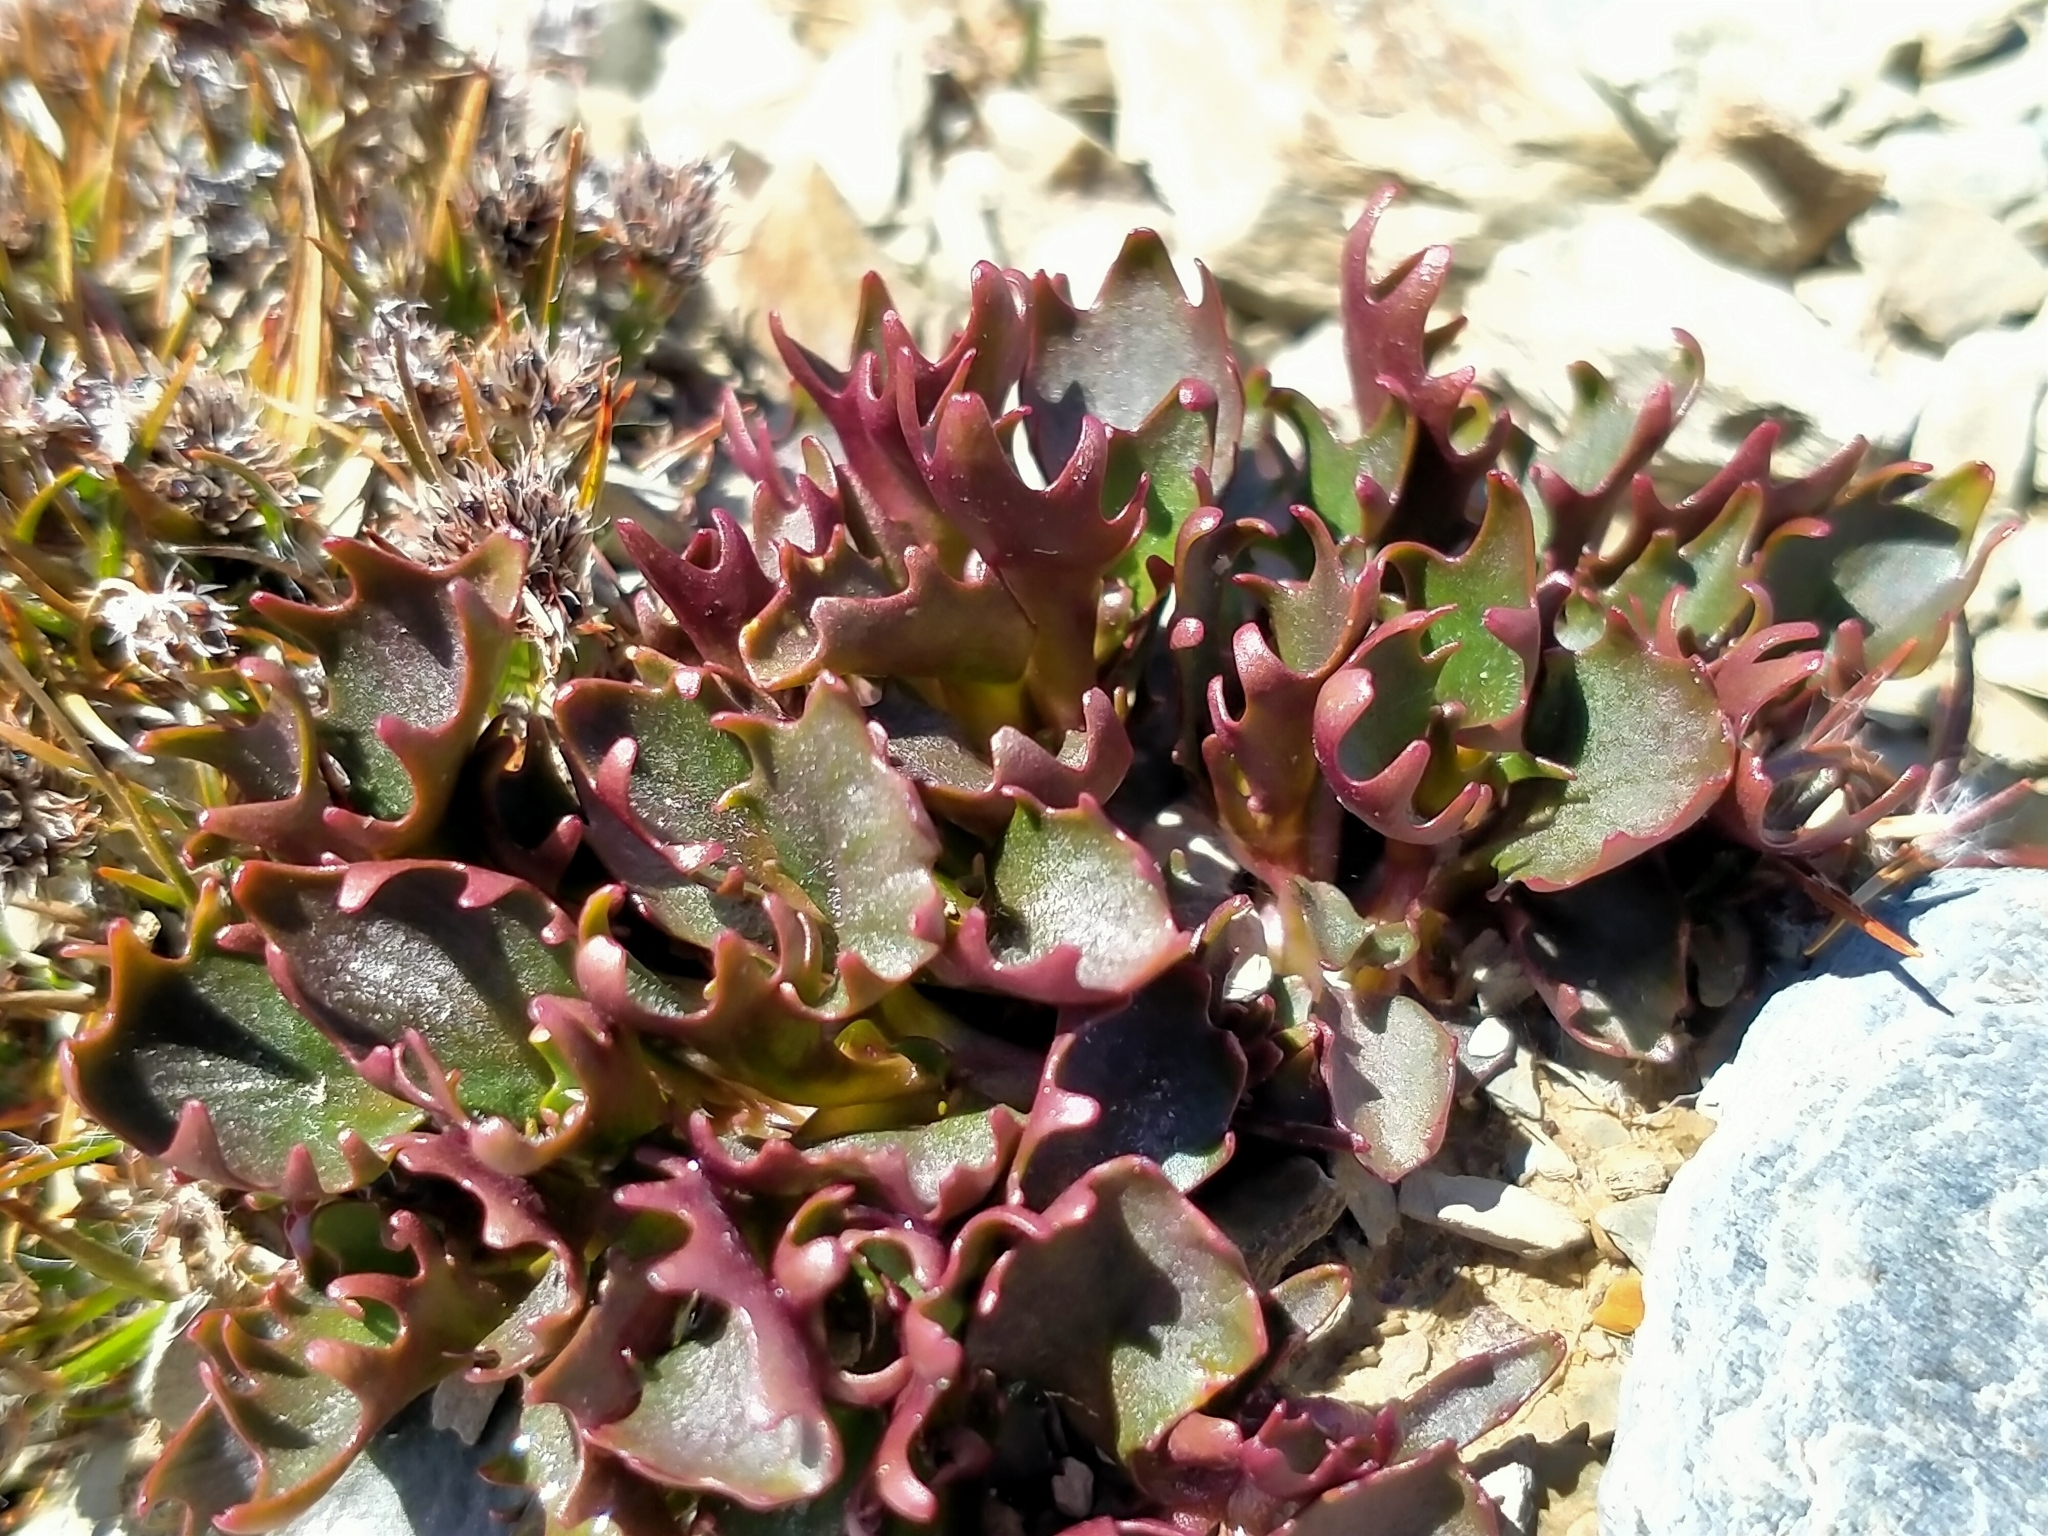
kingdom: Plantae
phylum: Tracheophyta
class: Magnoliopsida
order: Asterales
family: Campanulaceae
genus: Lobelia
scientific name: Lobelia roughii
